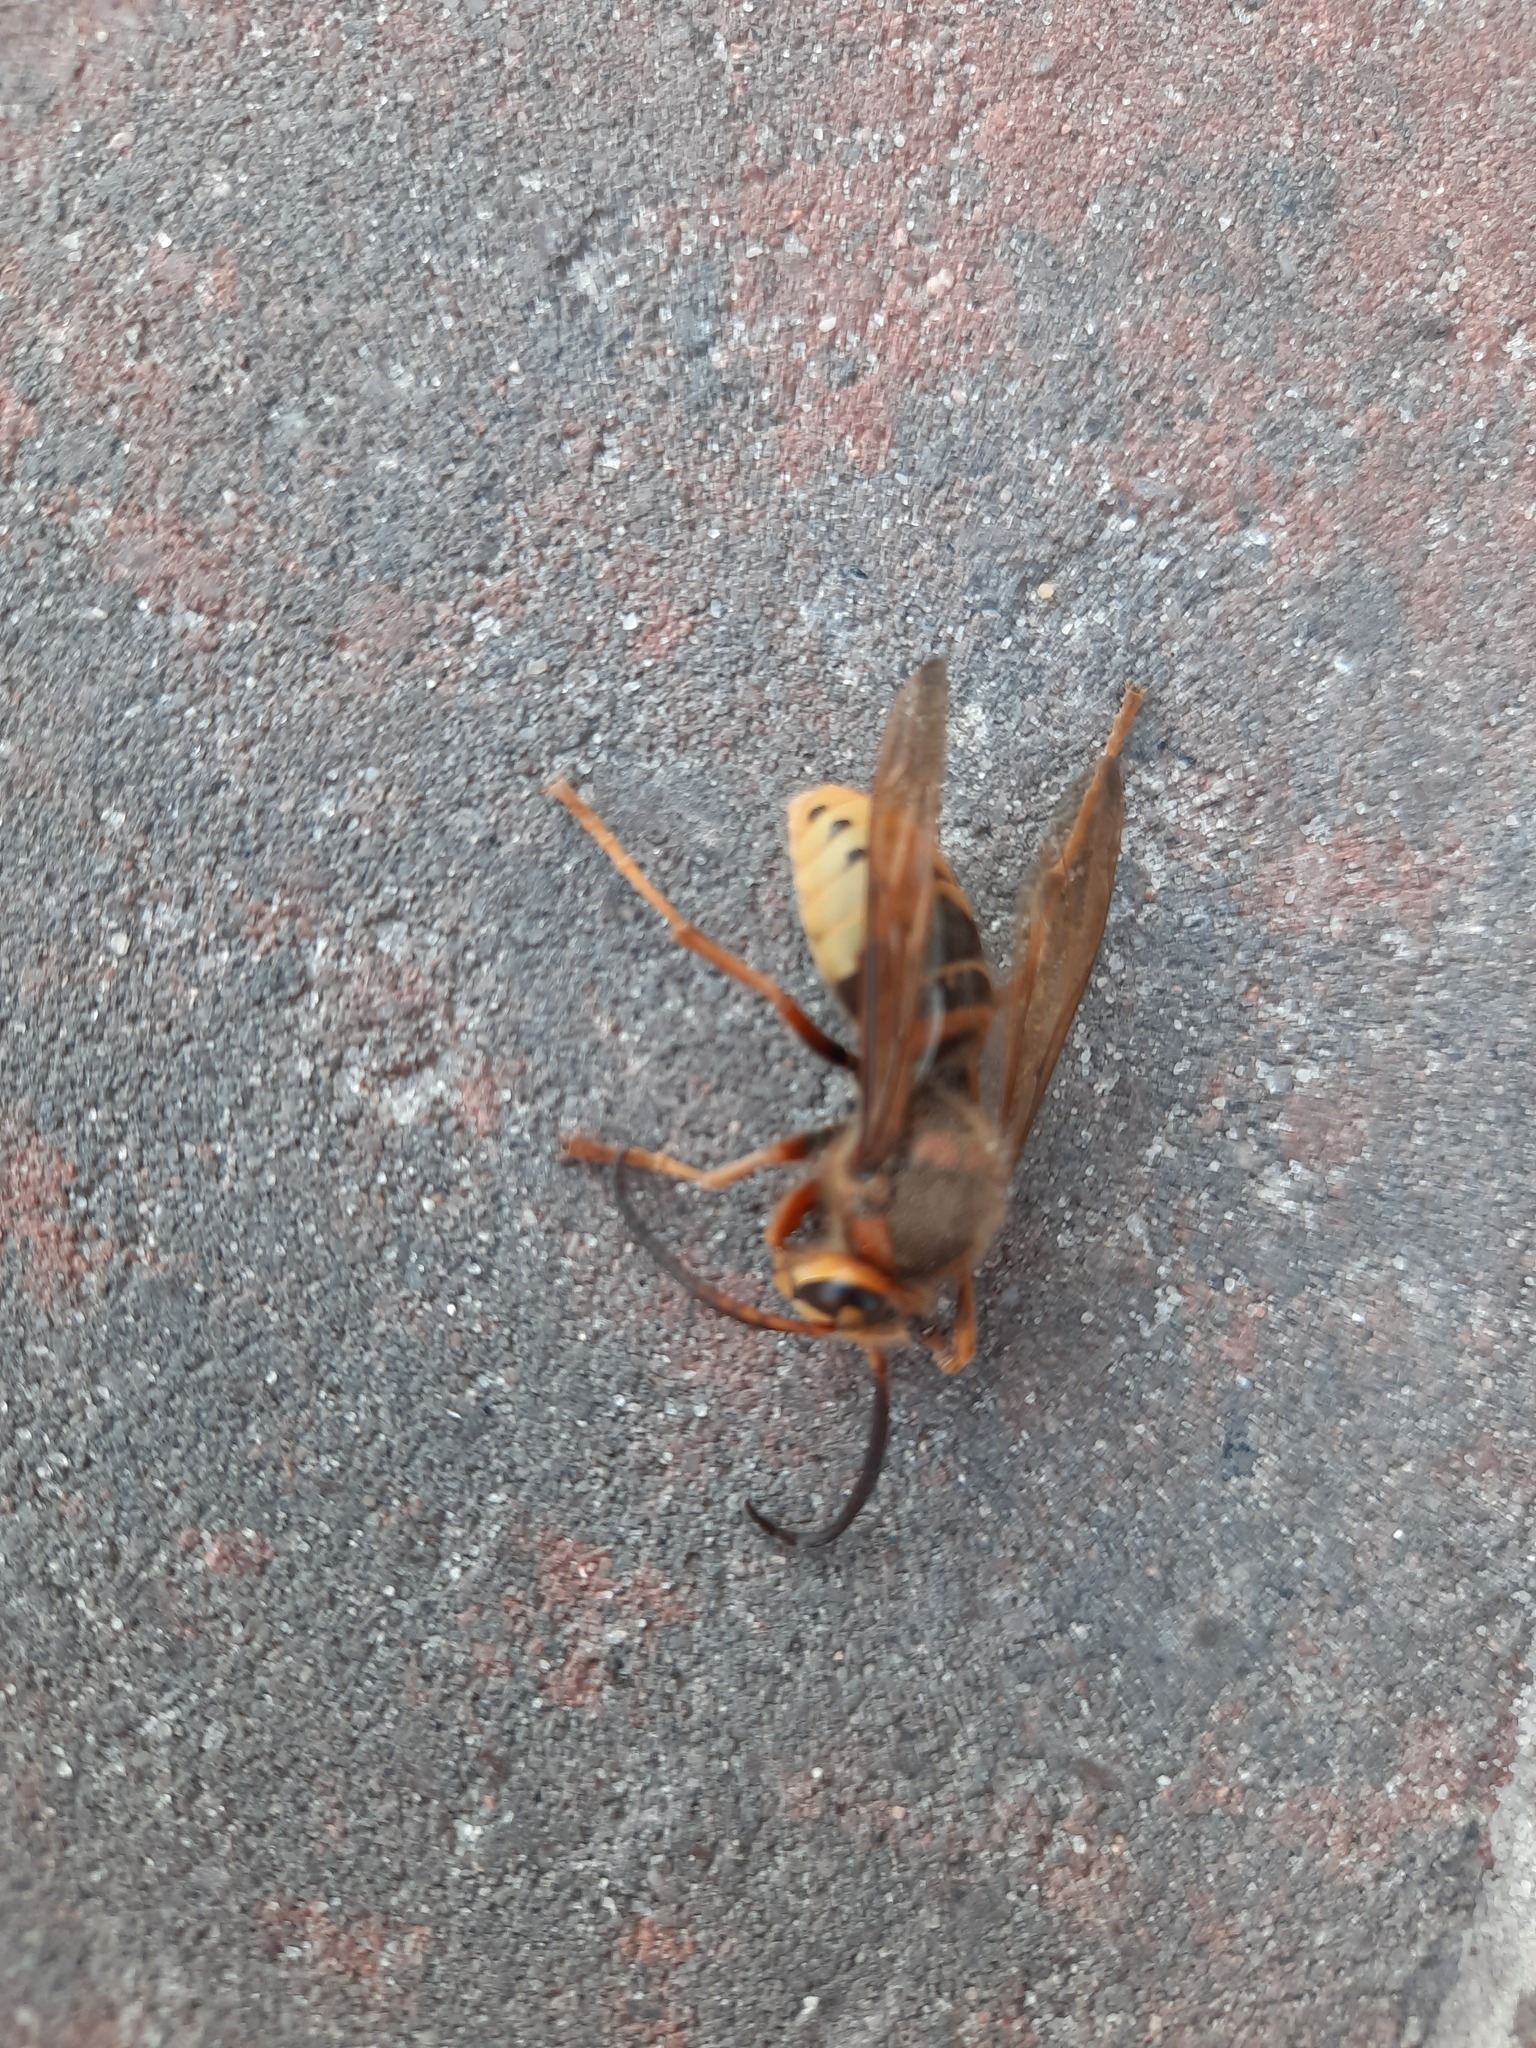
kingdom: Animalia
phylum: Arthropoda
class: Insecta
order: Hymenoptera
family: Vespidae
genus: Vespa
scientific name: Vespa crabro
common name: Hornet
